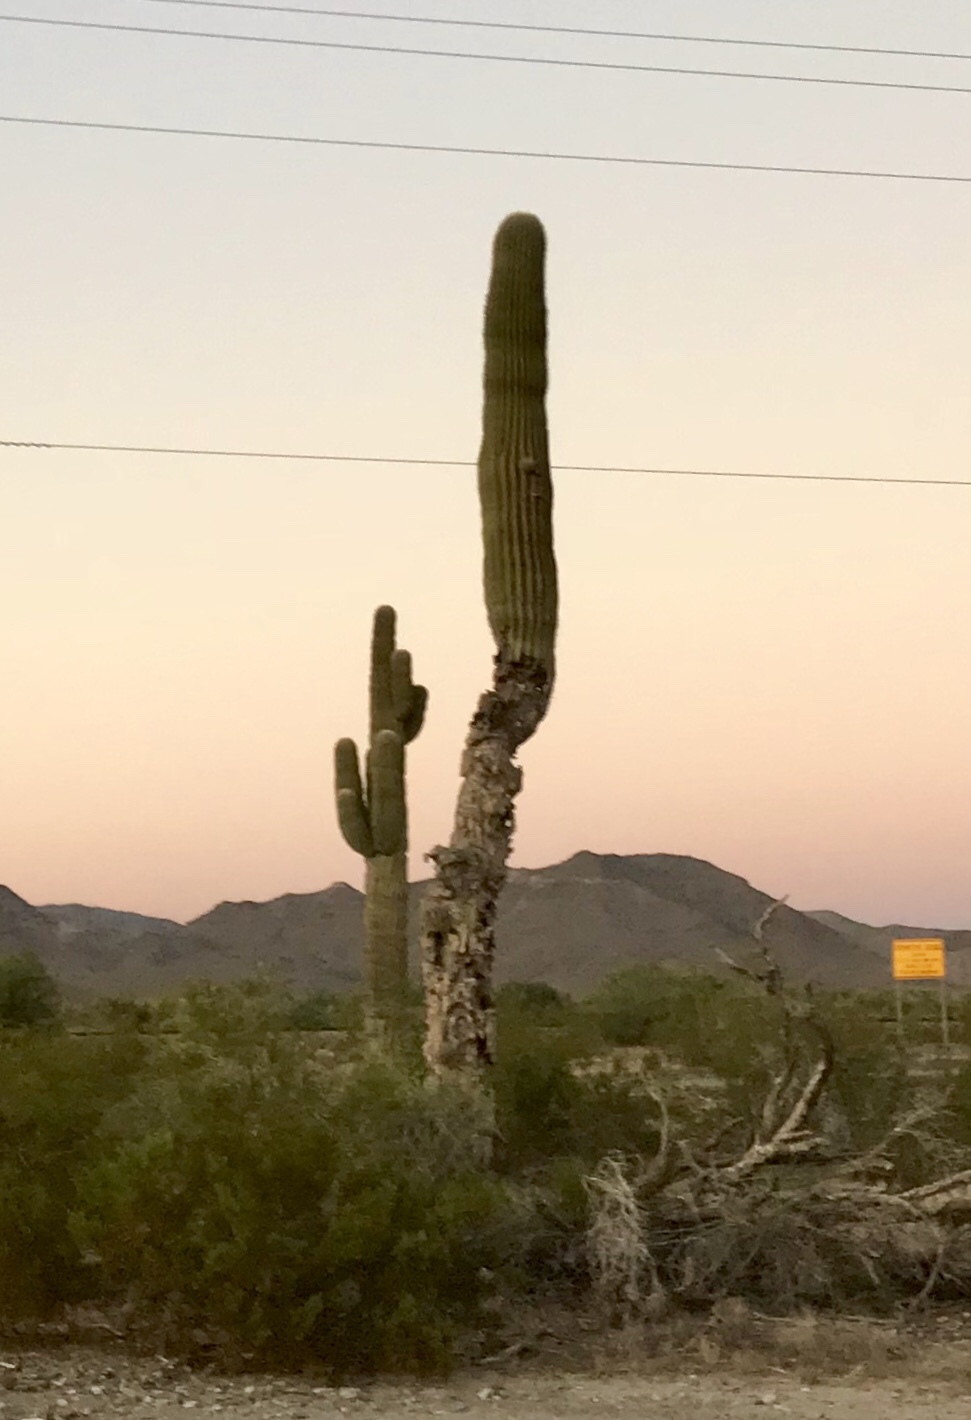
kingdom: Plantae
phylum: Tracheophyta
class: Magnoliopsida
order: Caryophyllales
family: Cactaceae
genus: Carnegiea
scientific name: Carnegiea gigantea
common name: Saguaro
